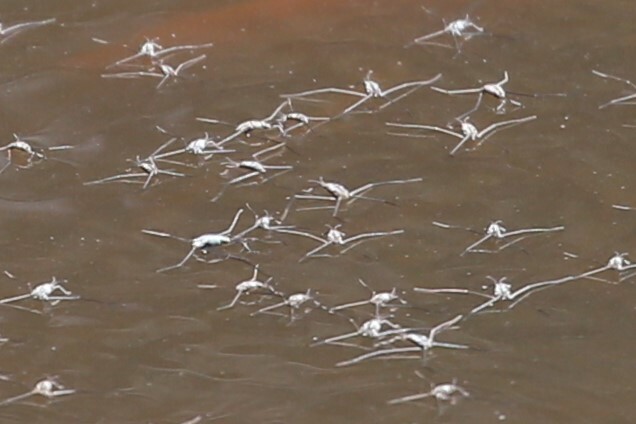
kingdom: Animalia
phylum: Arthropoda
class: Insecta
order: Hemiptera
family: Gerridae
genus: Halobates
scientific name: Halobates
